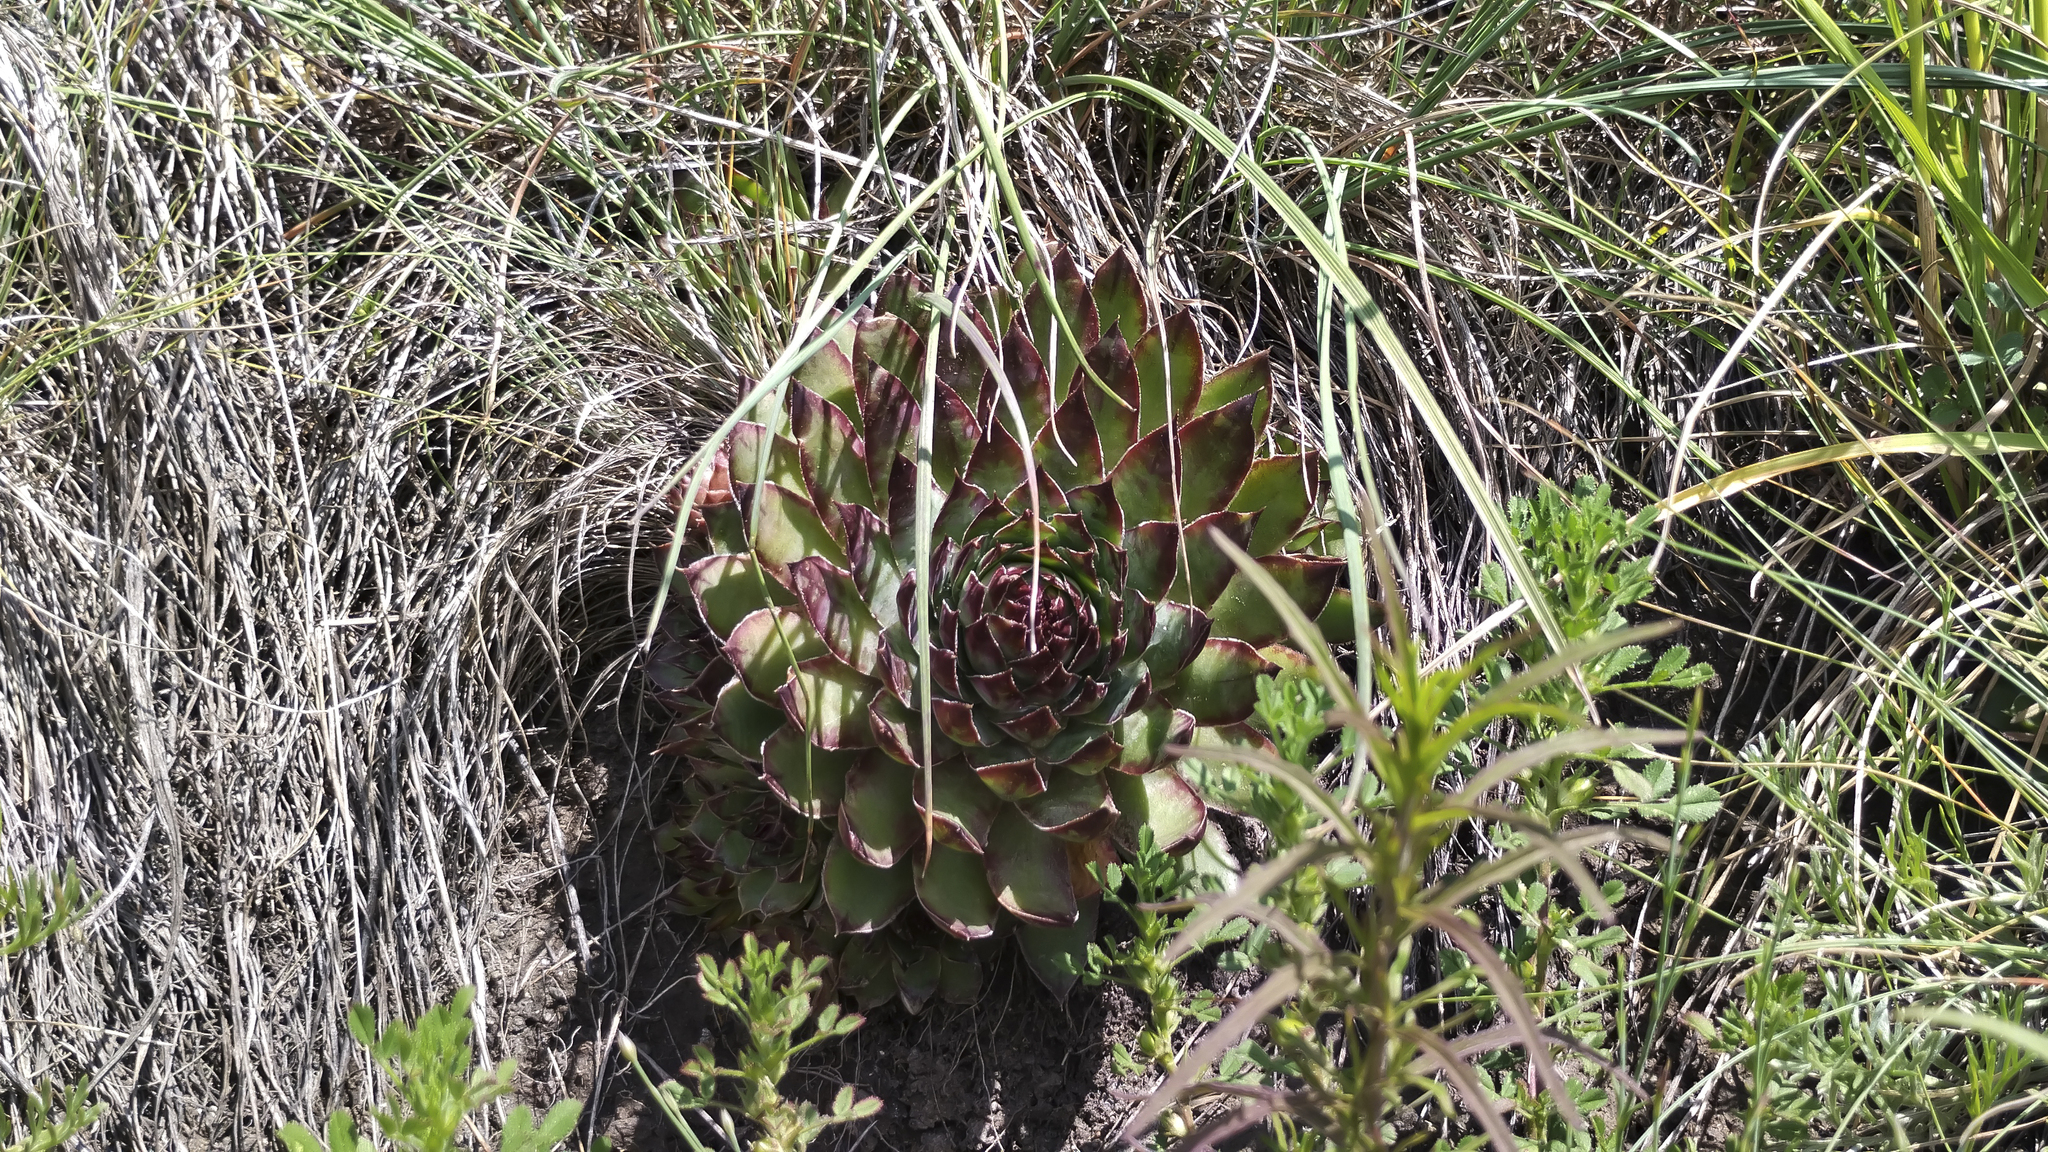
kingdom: Plantae
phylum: Tracheophyta
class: Magnoliopsida
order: Saxifragales
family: Crassulaceae
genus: Sempervivum
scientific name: Sempervivum tectorum
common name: House-leek
